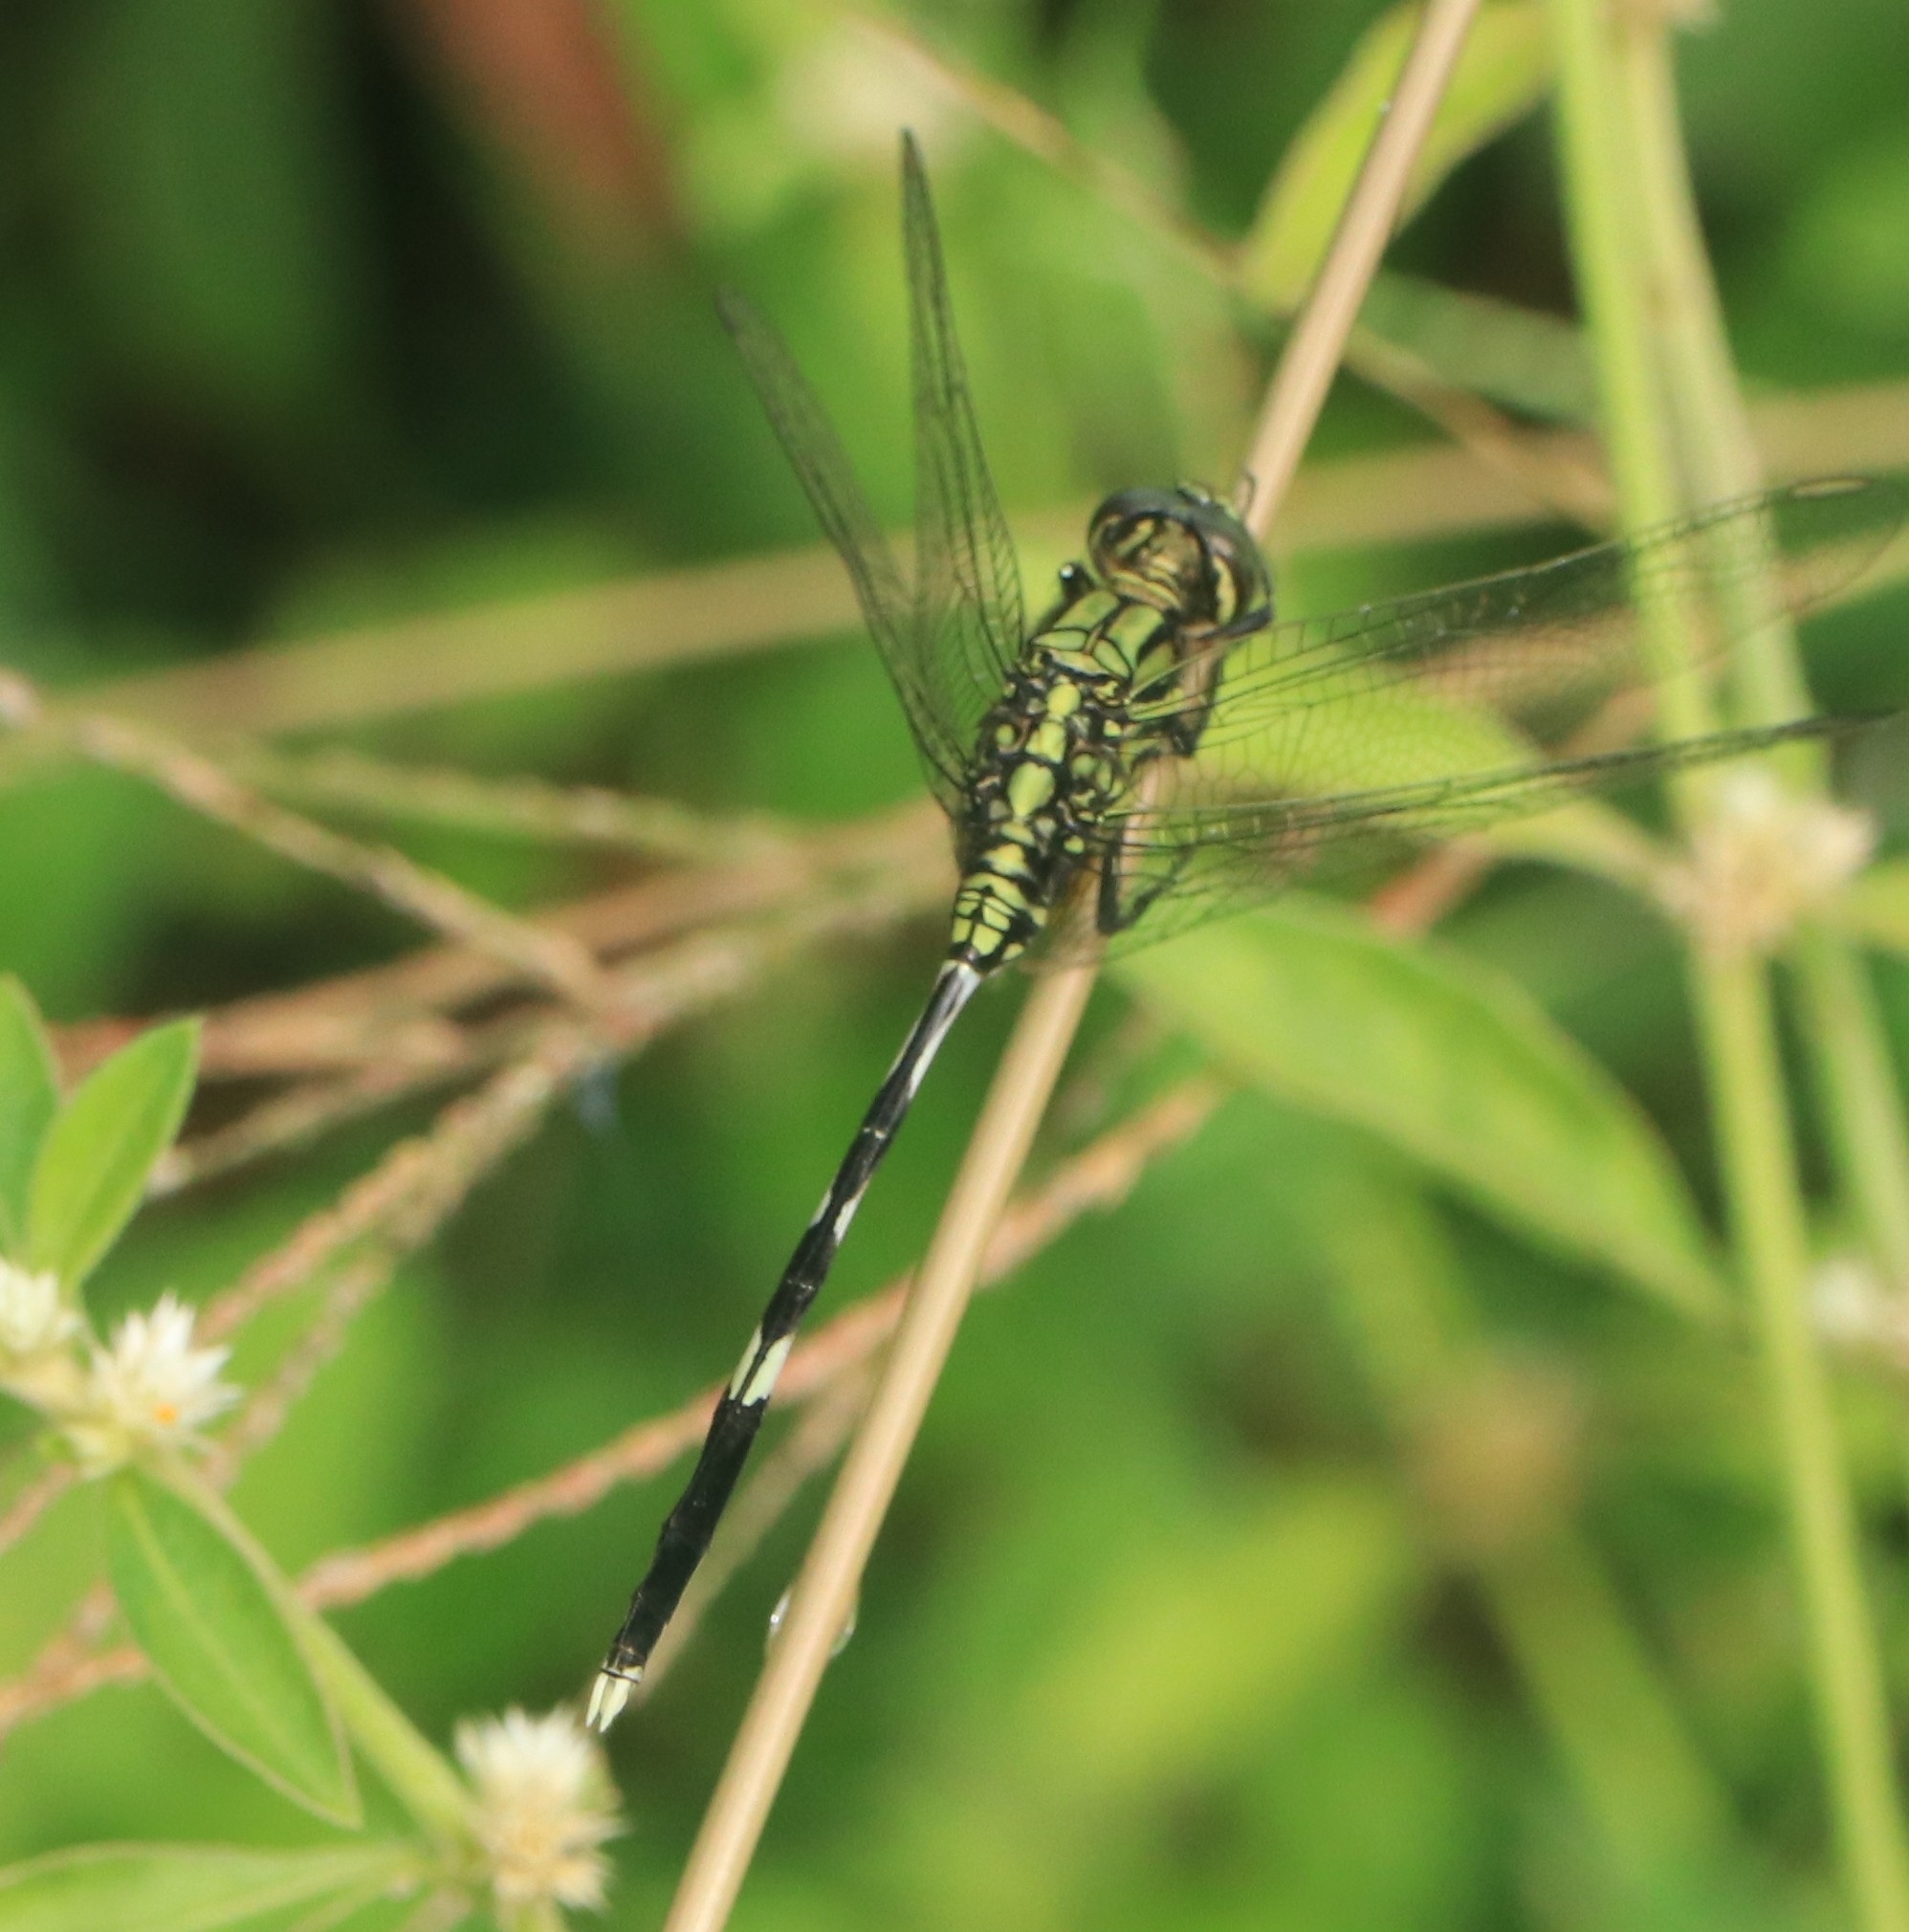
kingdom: Animalia
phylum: Arthropoda
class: Insecta
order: Odonata
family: Libellulidae
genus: Orthetrum
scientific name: Orthetrum sabina
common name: Slender skimmer
